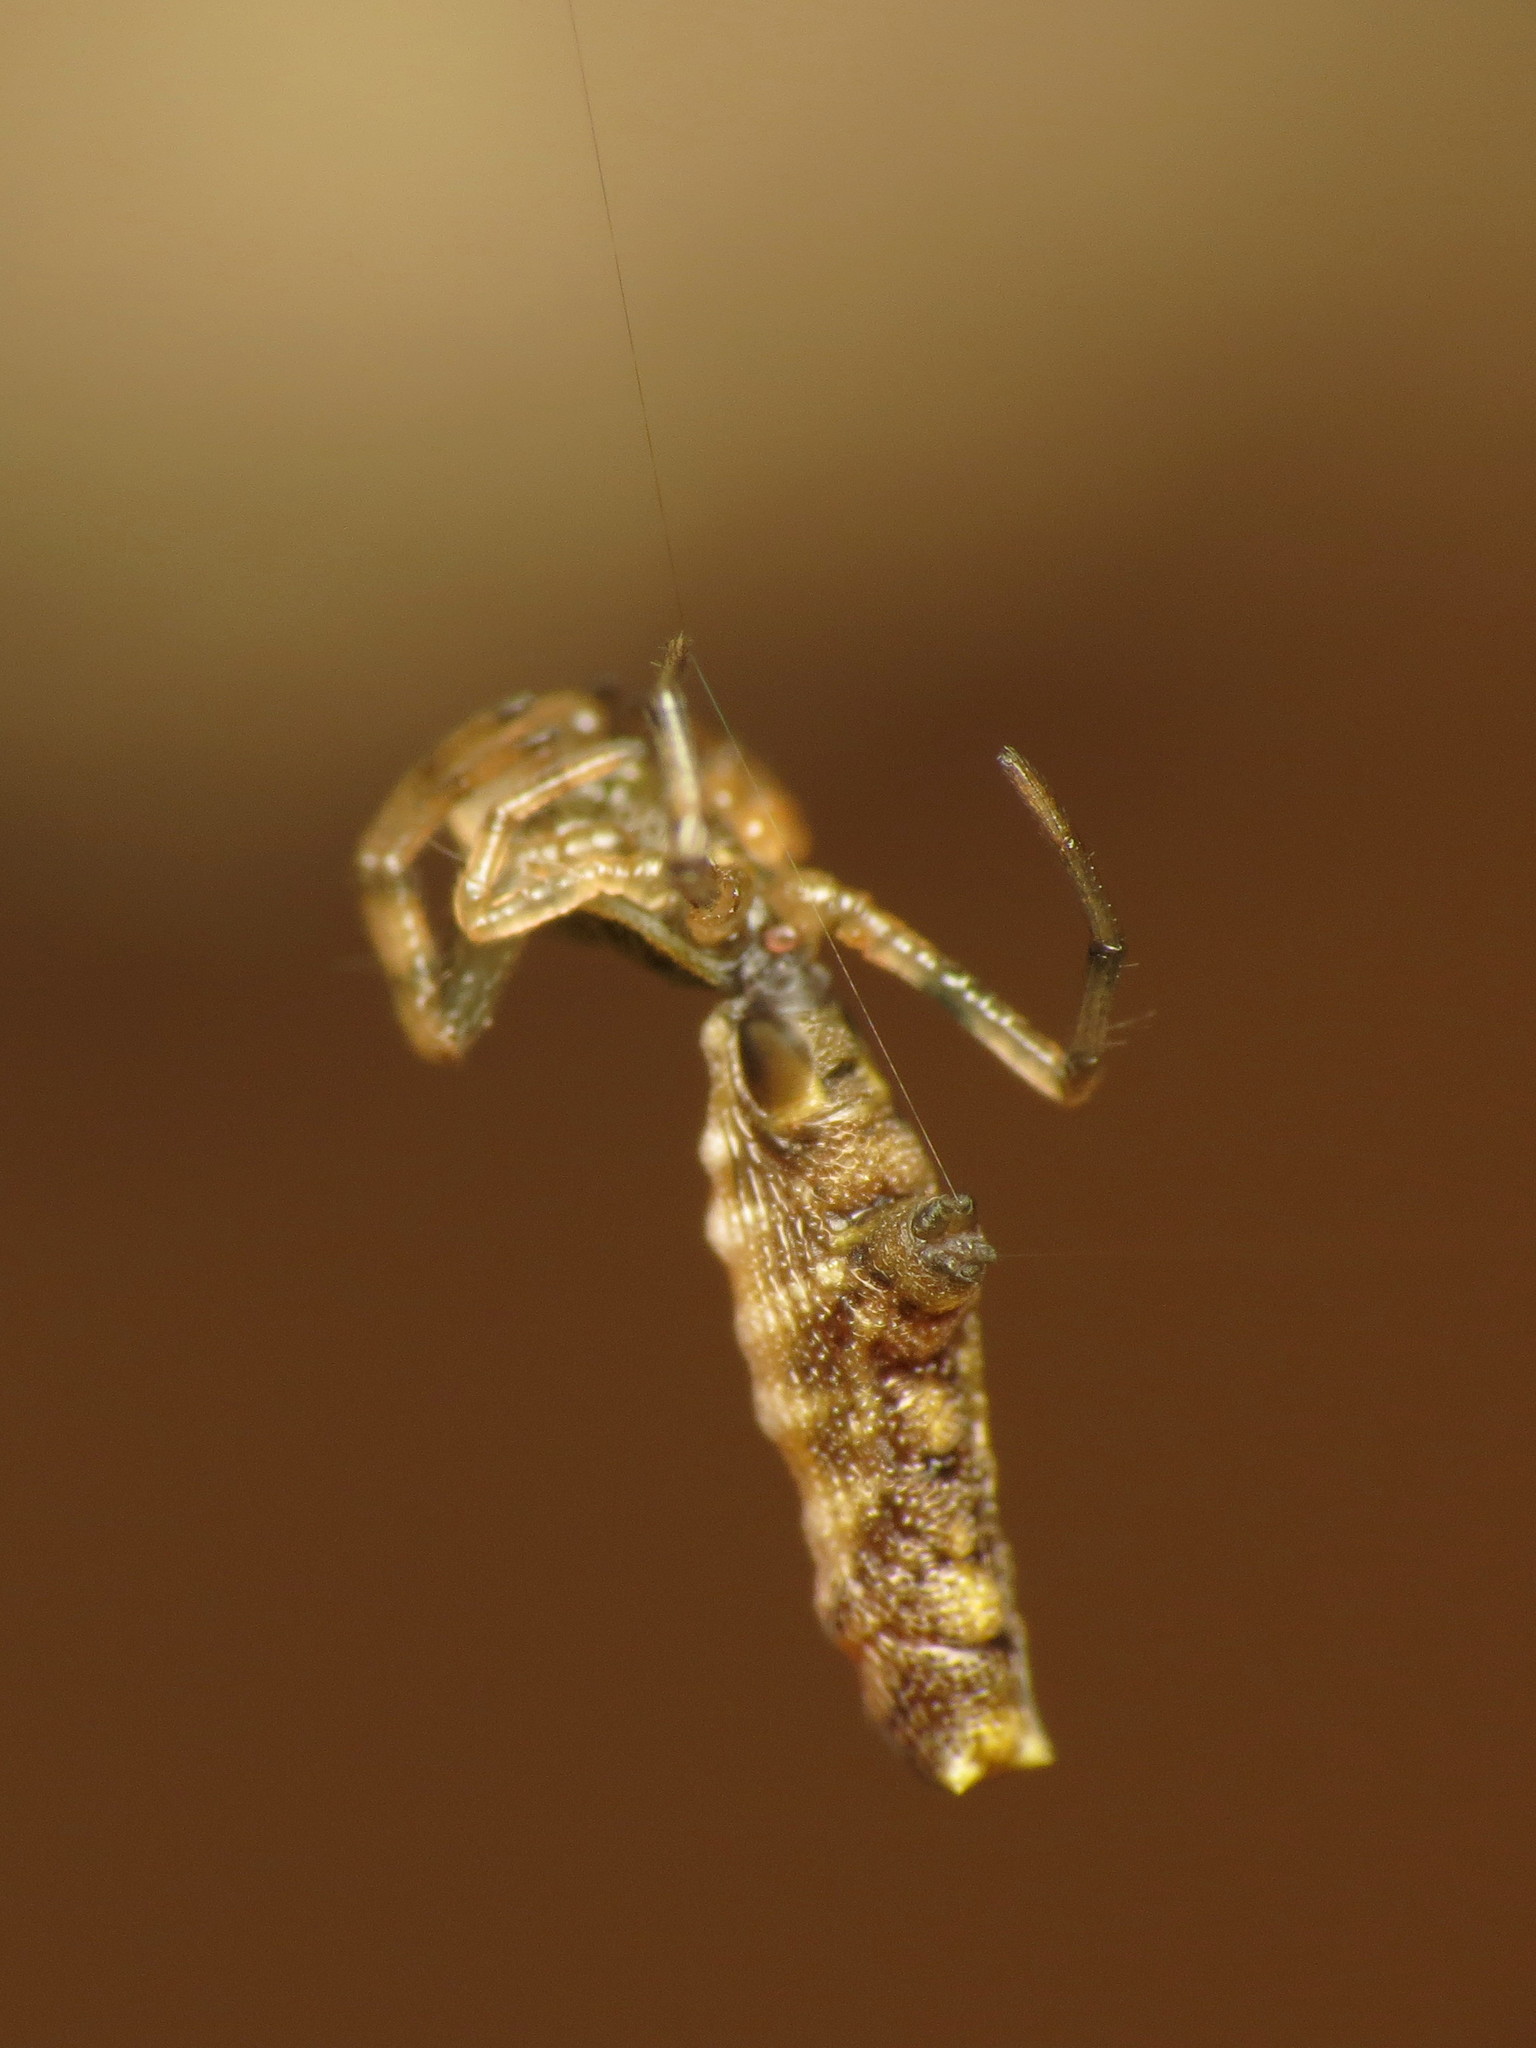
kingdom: Animalia
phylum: Arthropoda
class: Arachnida
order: Araneae
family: Araneidae
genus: Micrathena
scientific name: Micrathena gracilis
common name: Orb weavers
